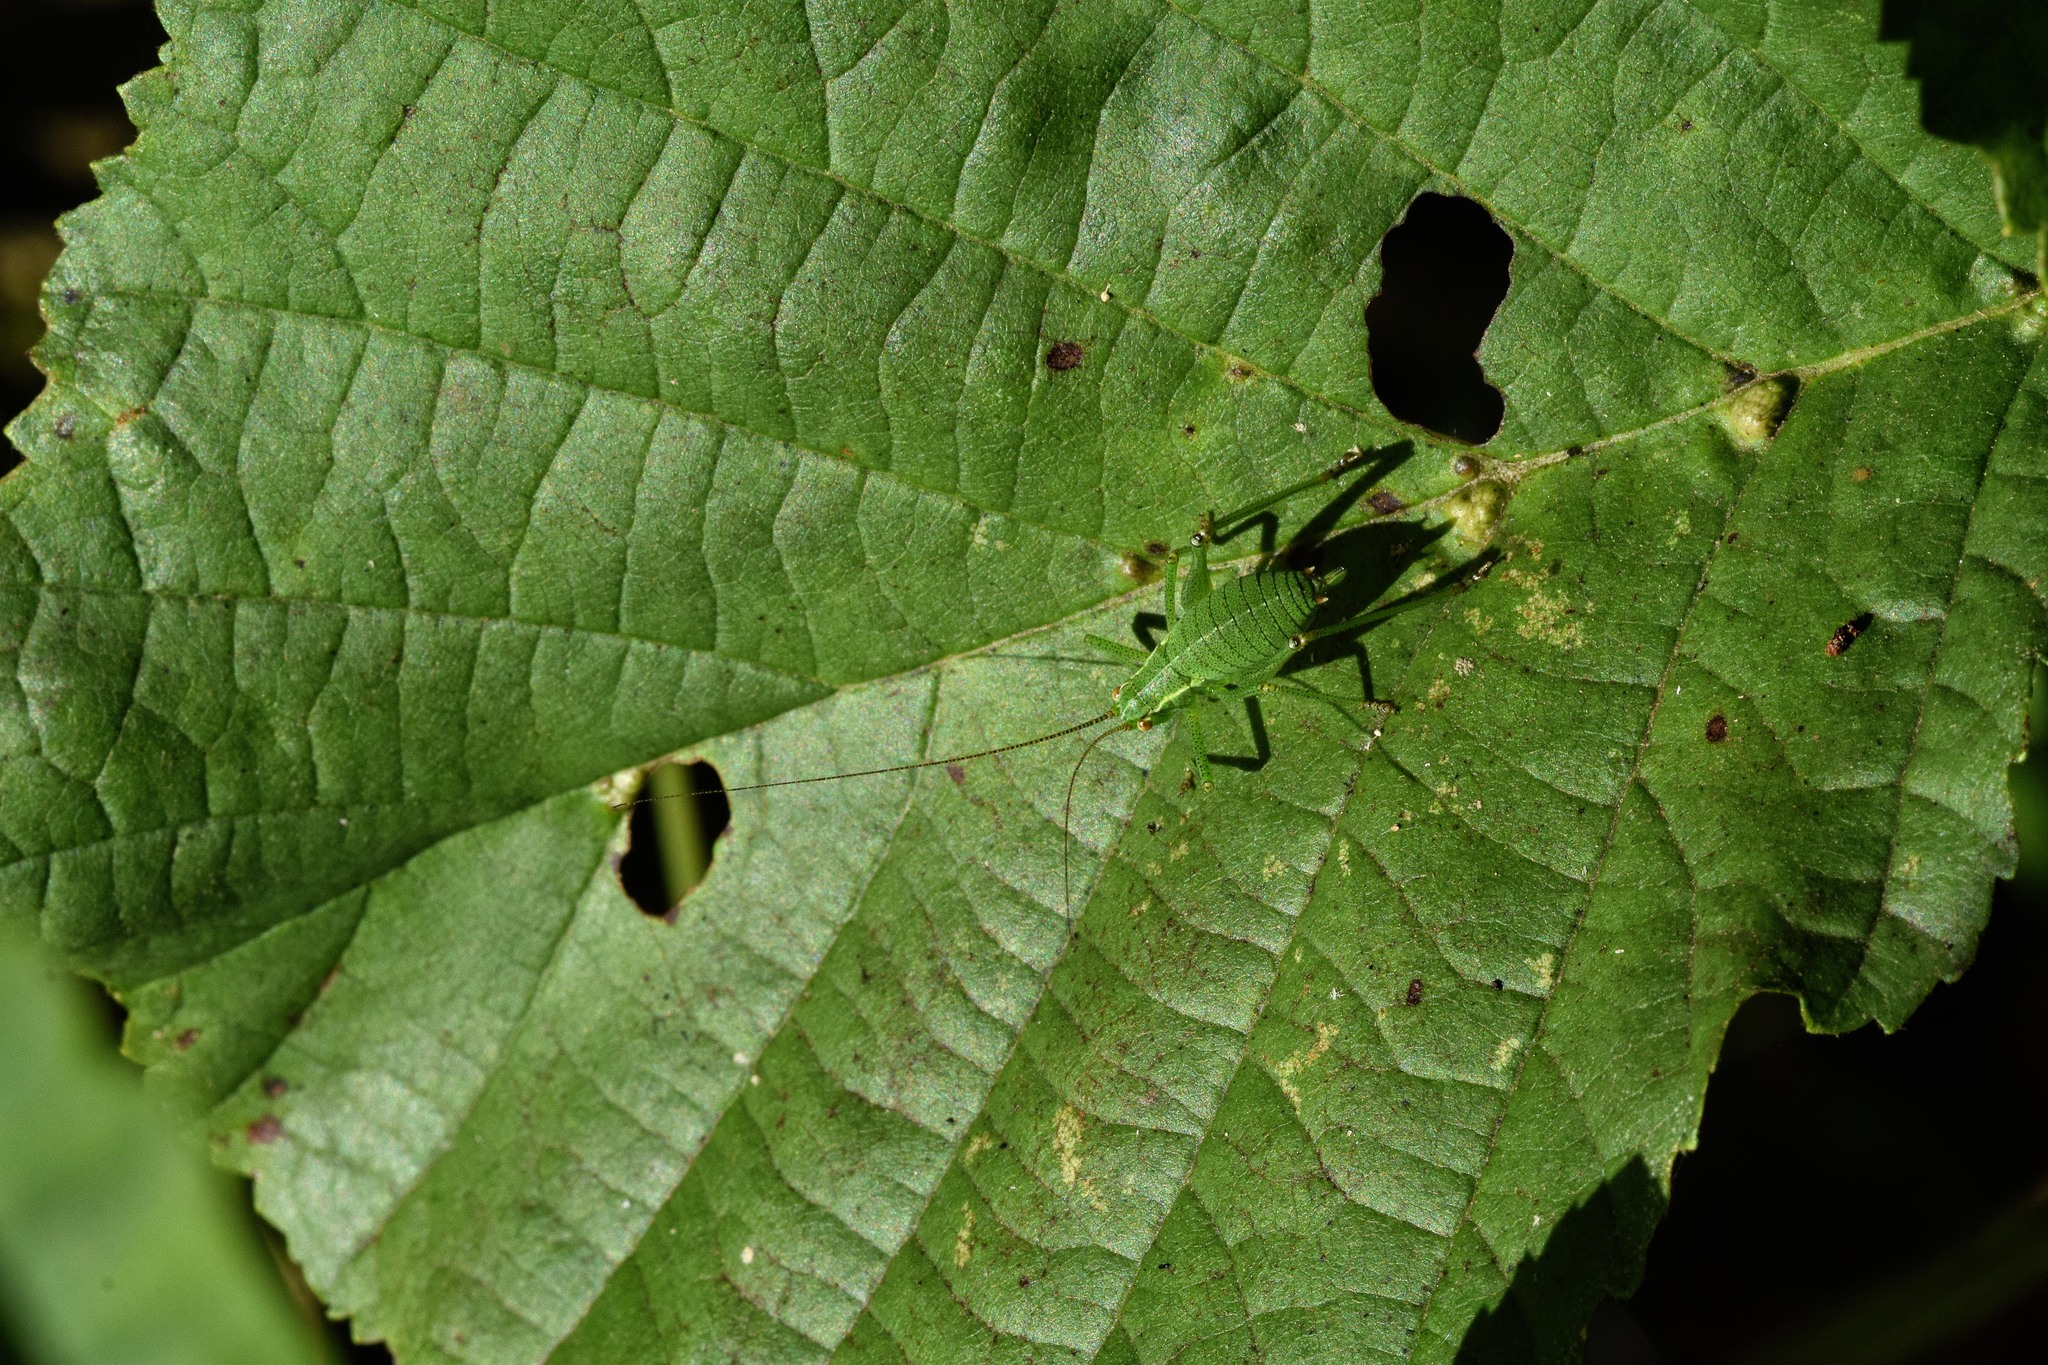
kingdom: Animalia
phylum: Arthropoda
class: Insecta
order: Orthoptera
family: Tettigoniidae
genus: Leptophyes
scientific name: Leptophyes punctatissima
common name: Speckled bush-cricket
